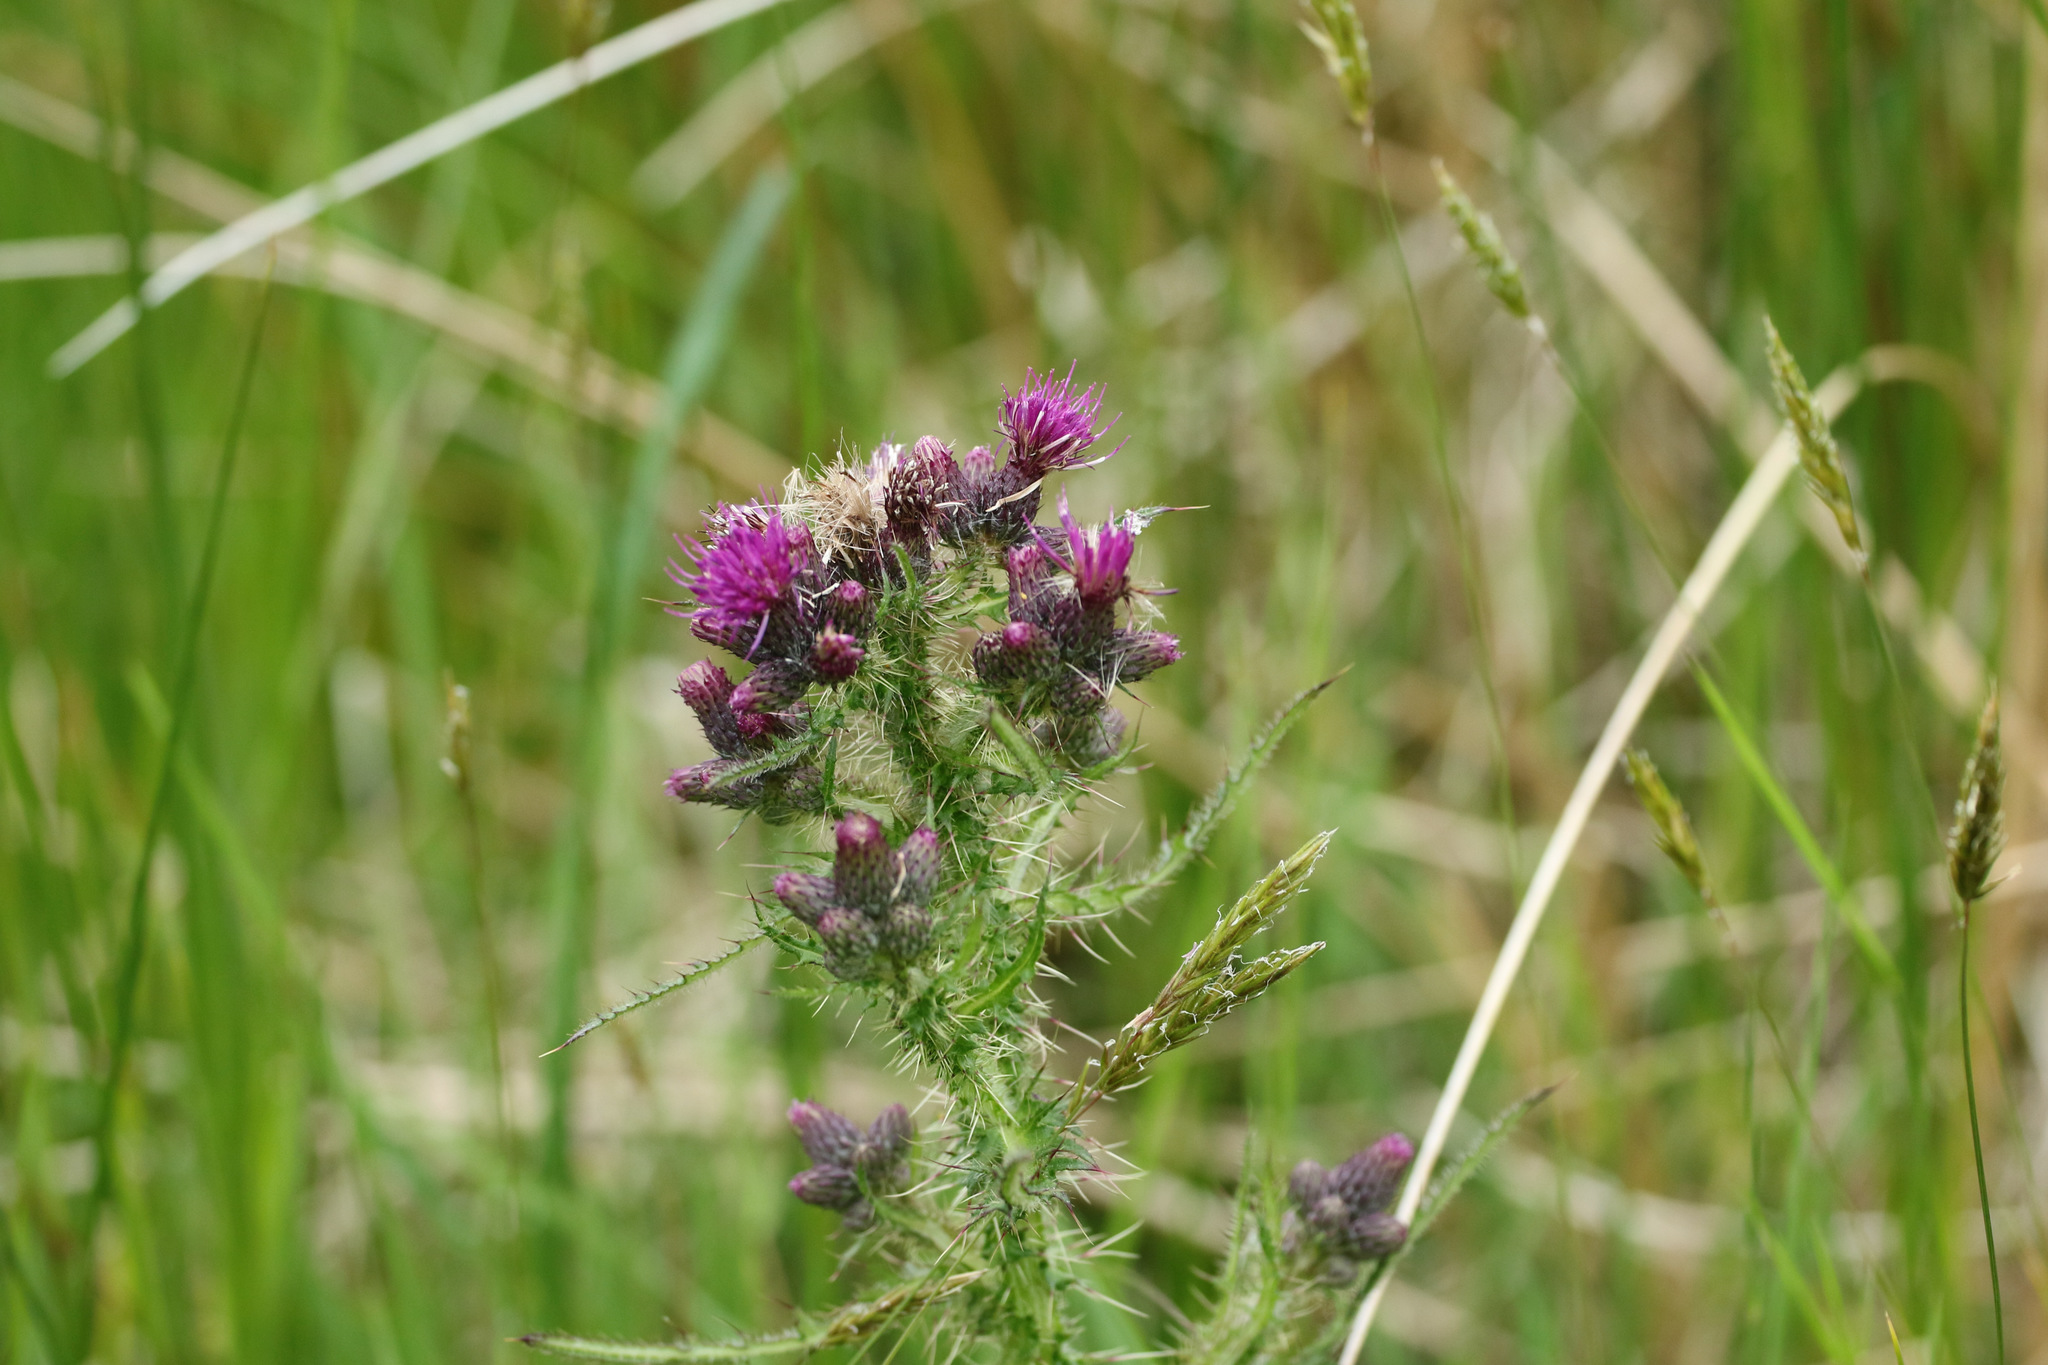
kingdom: Plantae
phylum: Tracheophyta
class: Magnoliopsida
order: Asterales
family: Asteraceae
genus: Cirsium
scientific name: Cirsium palustre
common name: Marsh thistle
